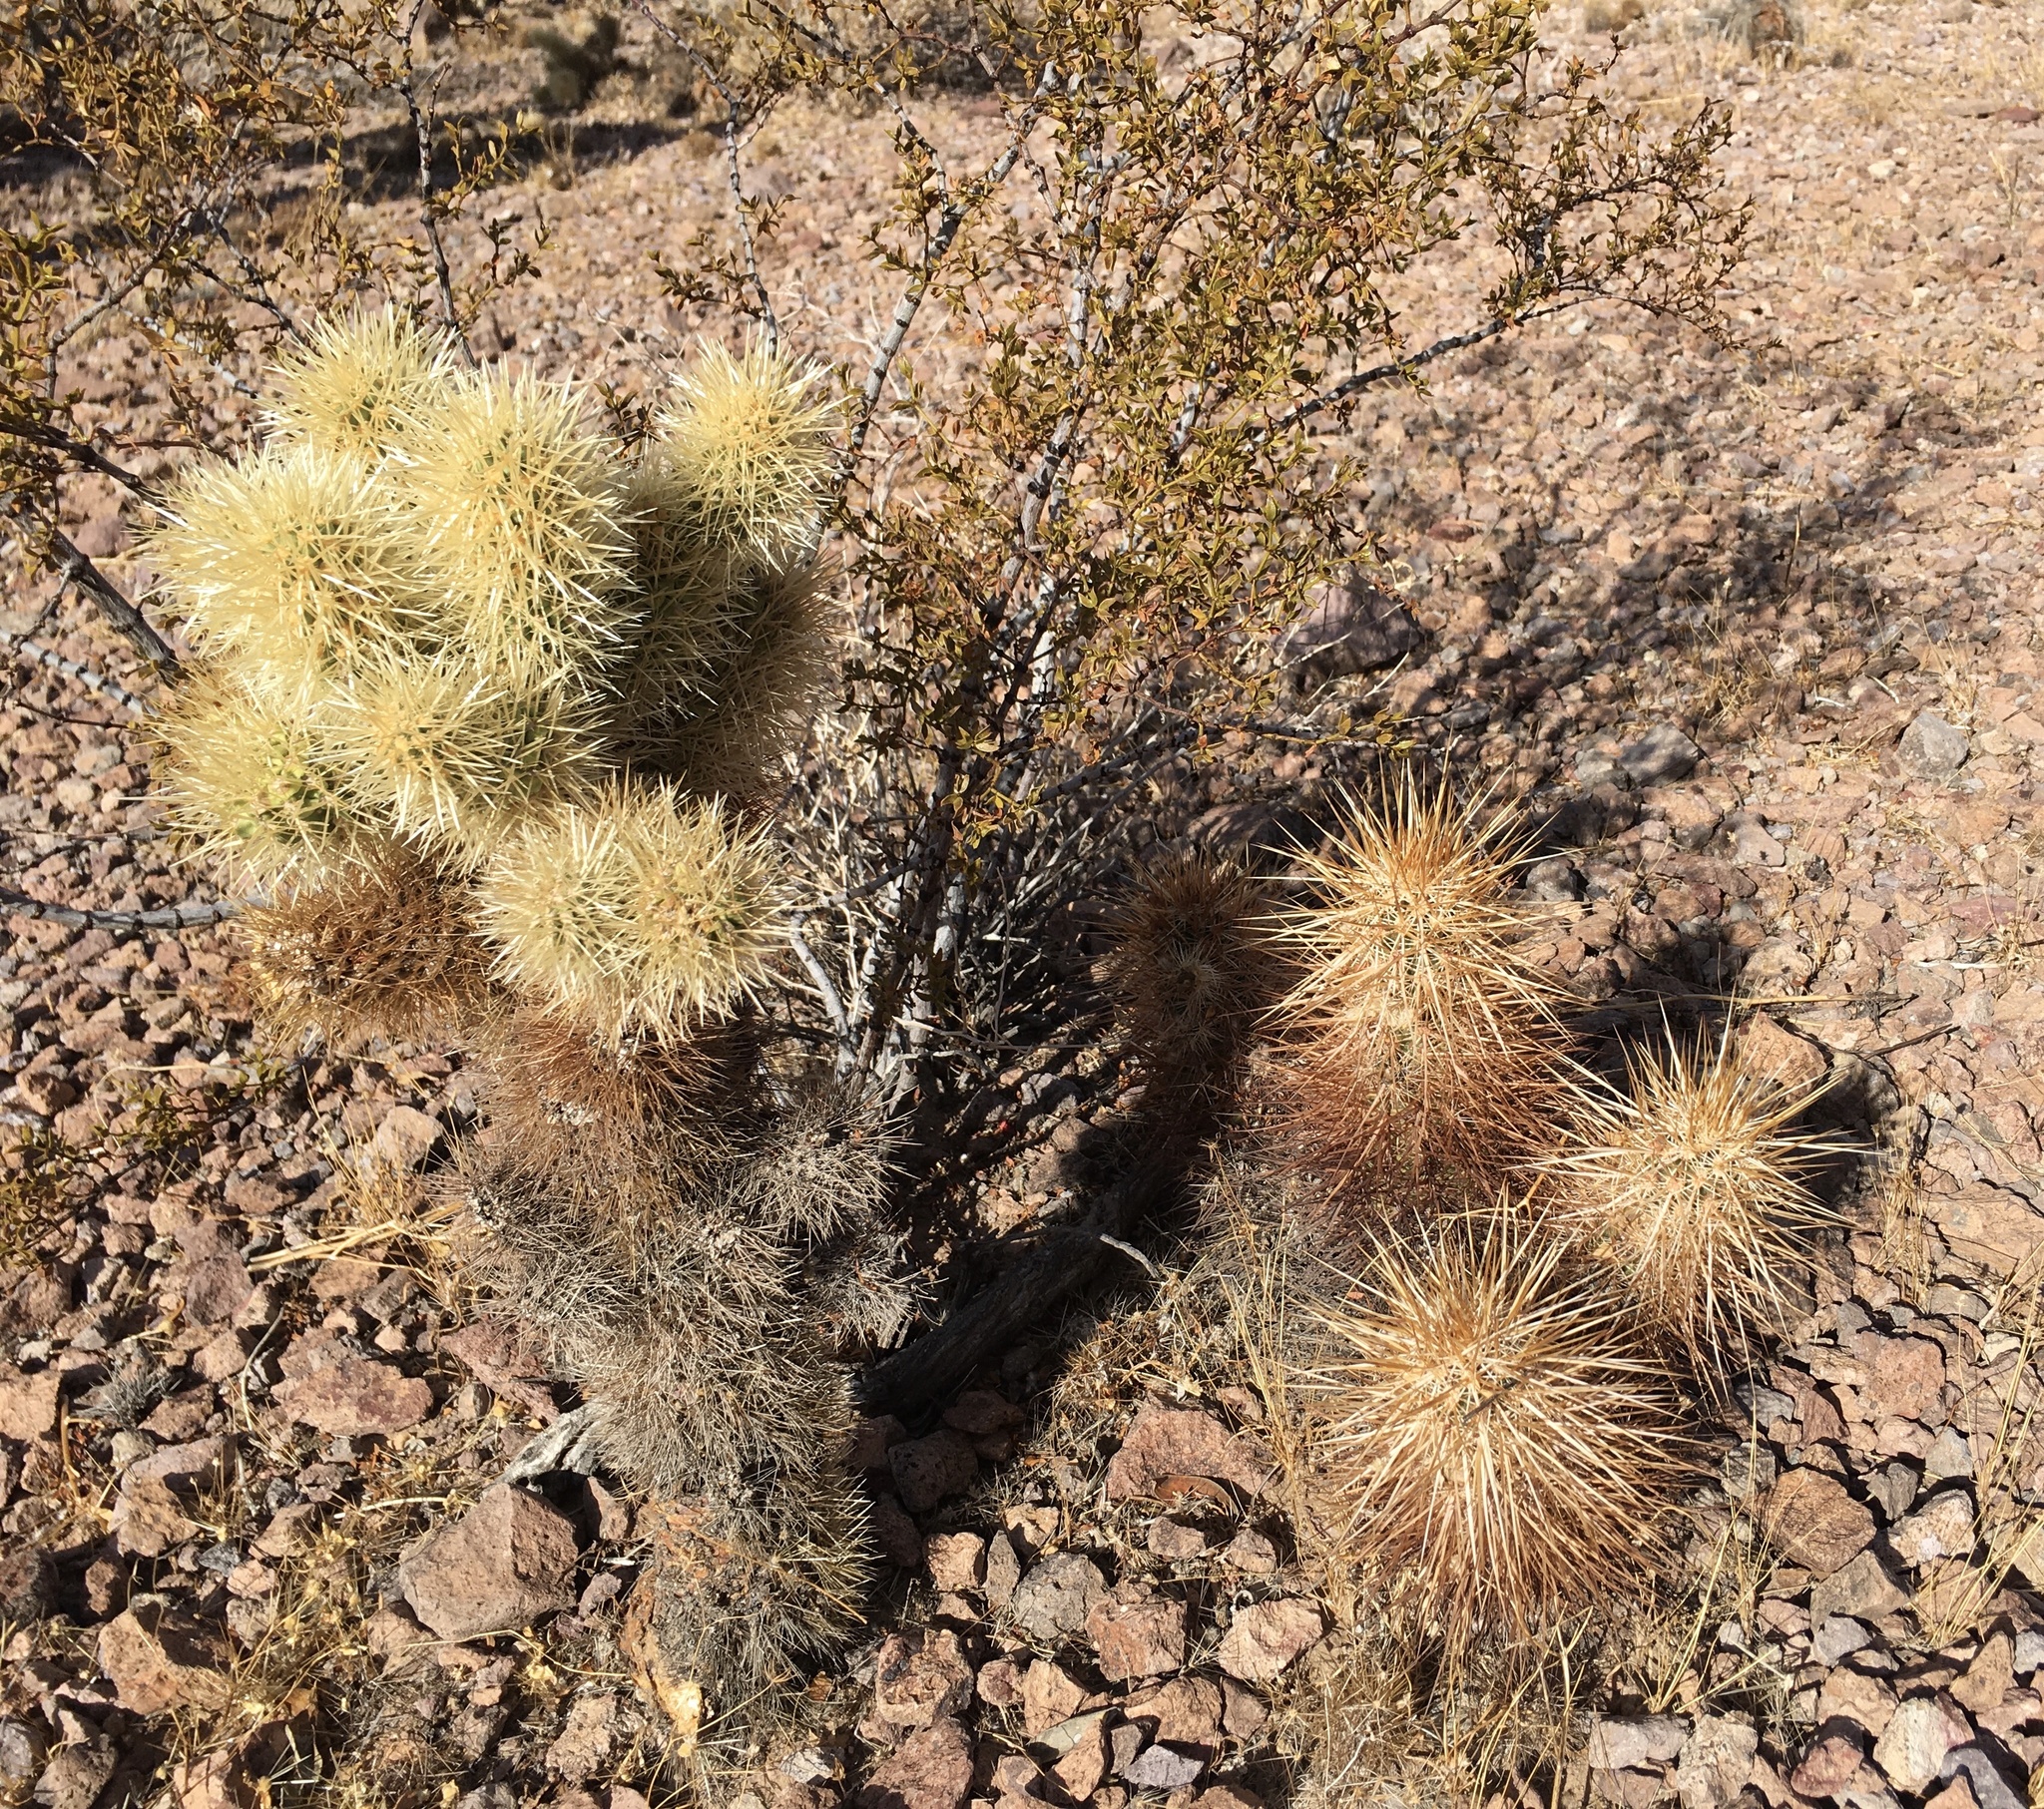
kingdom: Plantae
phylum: Tracheophyta
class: Magnoliopsida
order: Caryophyllales
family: Cactaceae
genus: Cylindropuntia
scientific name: Cylindropuntia fosbergii
